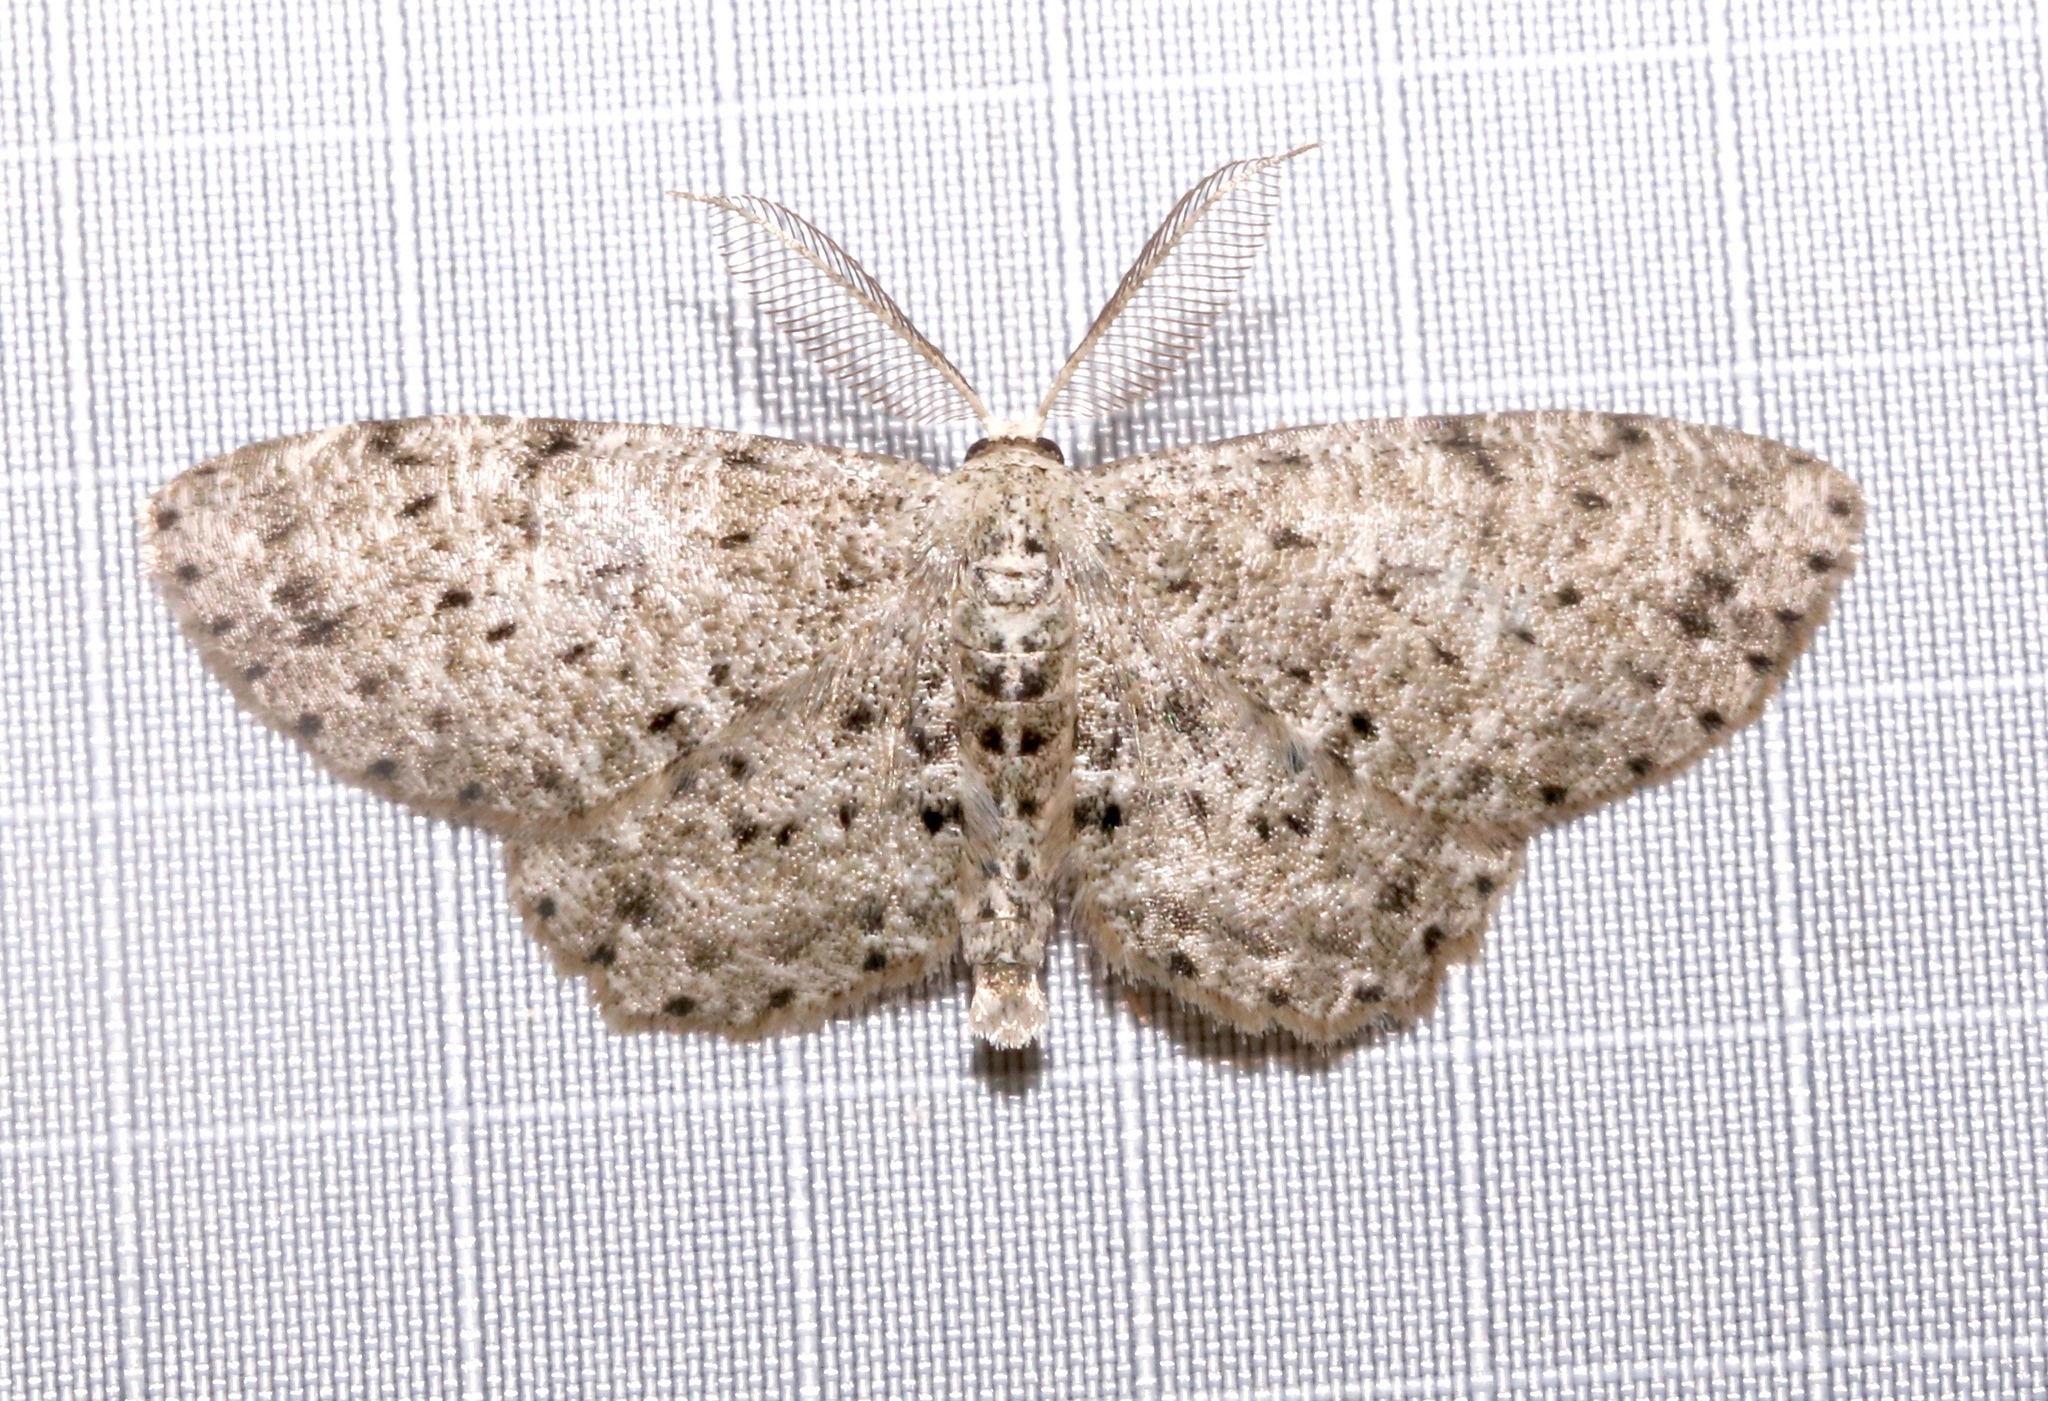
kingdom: Animalia
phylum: Arthropoda
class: Insecta
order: Lepidoptera
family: Geometridae
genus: Glena
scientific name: Glena cribrataria
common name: Dotted gray
